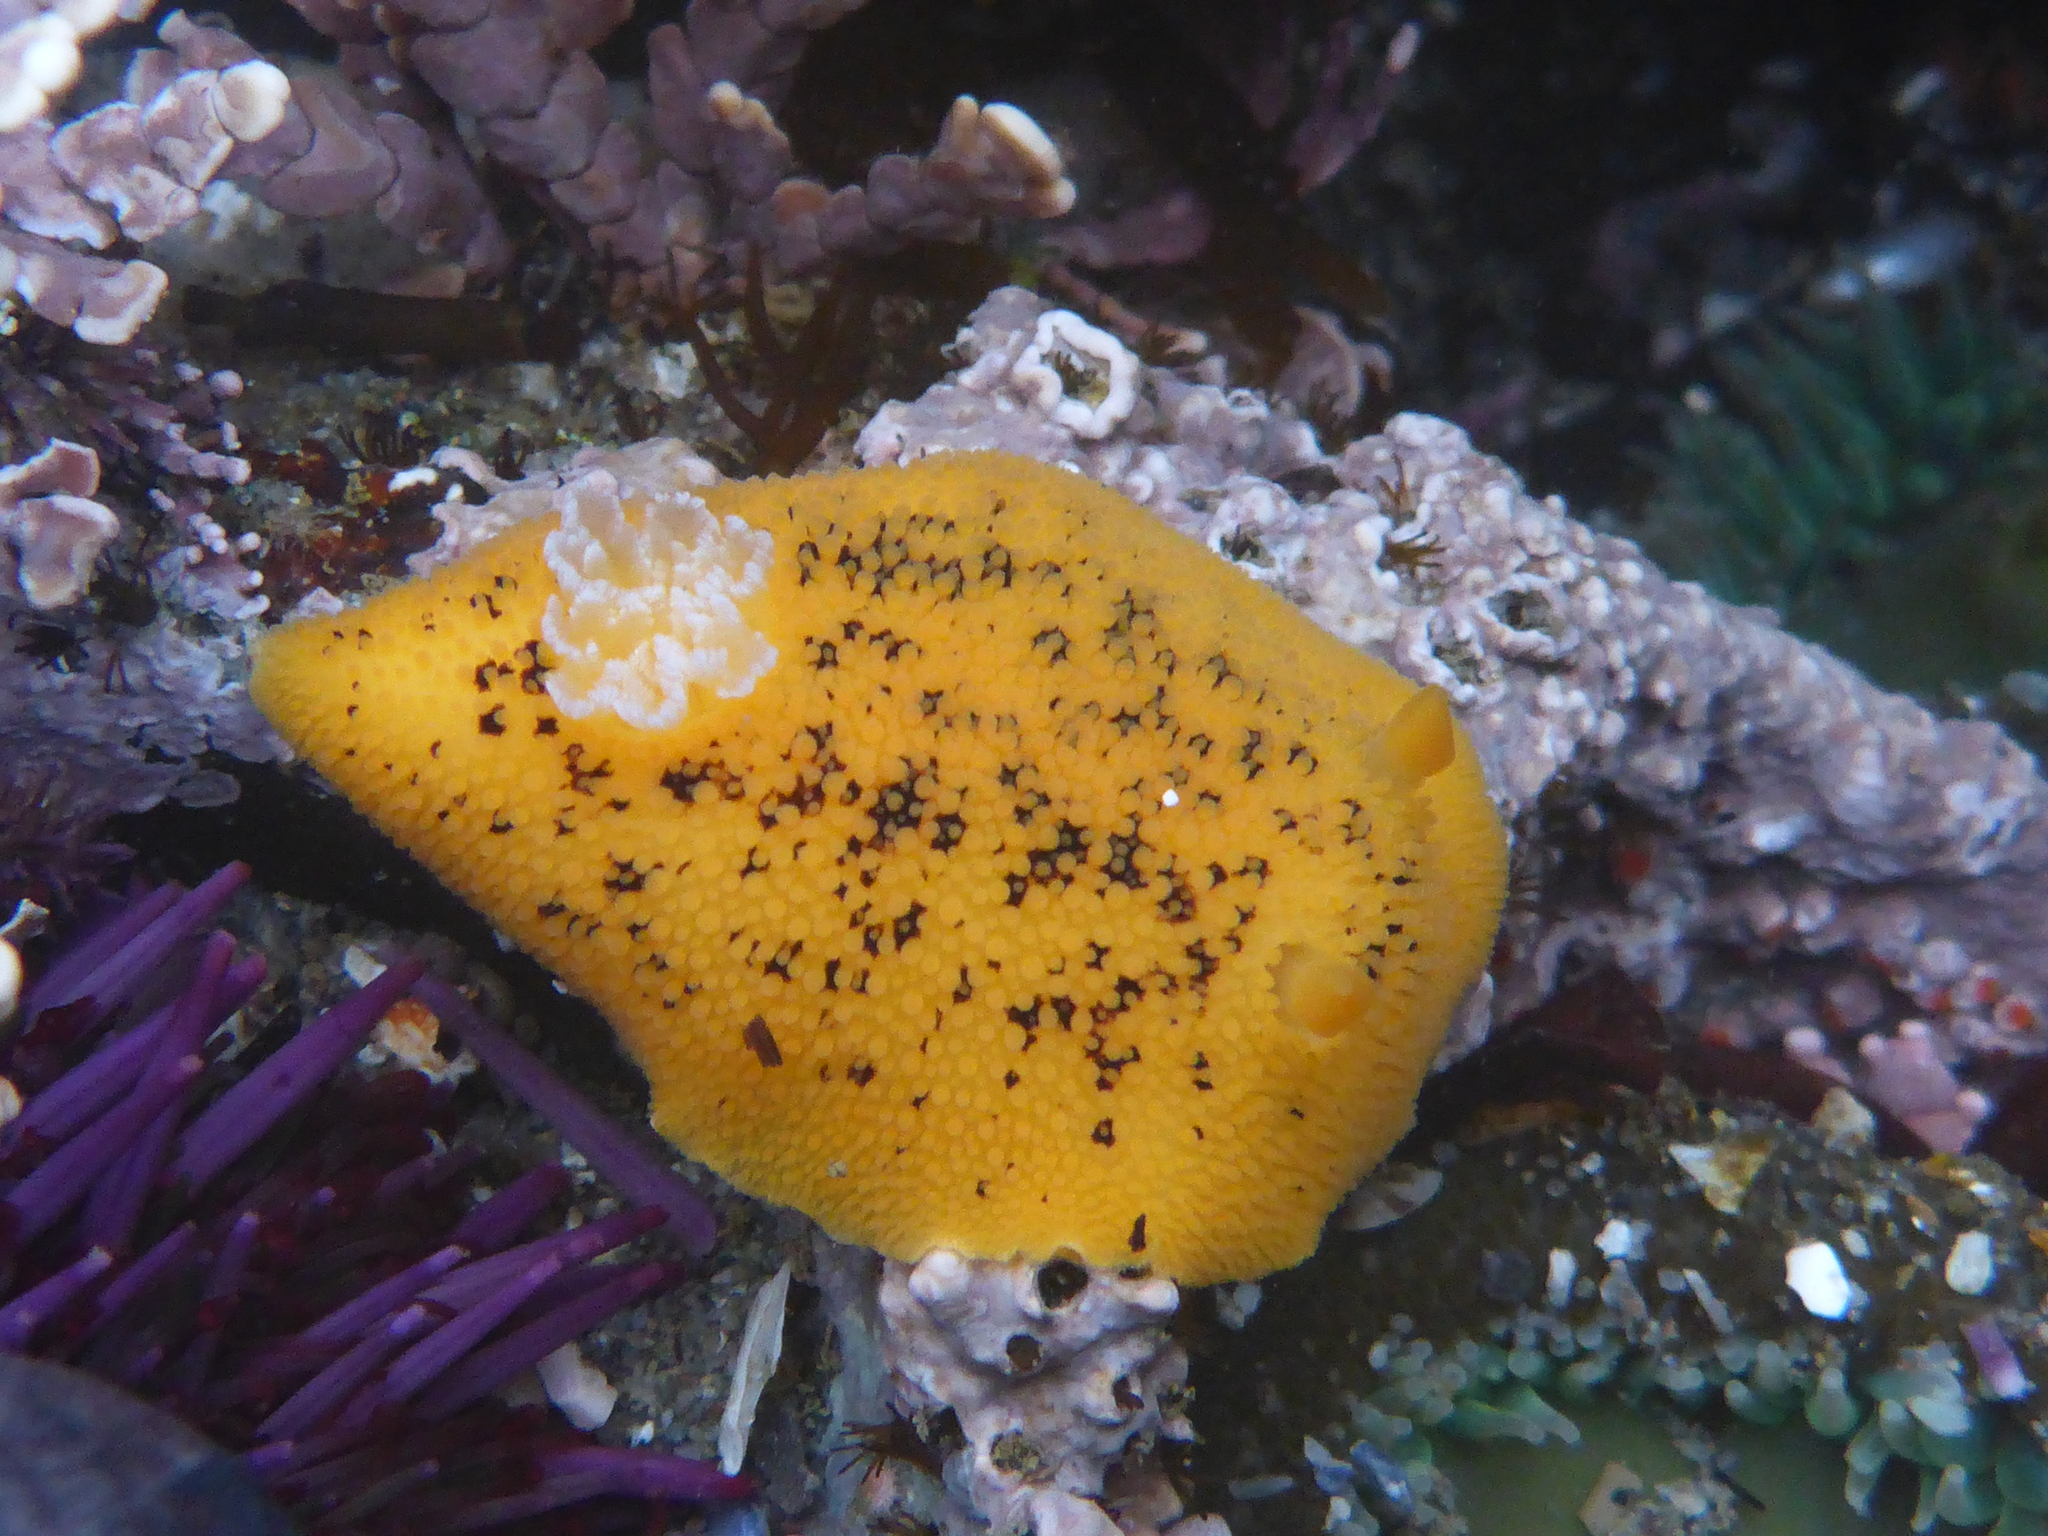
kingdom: Animalia
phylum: Mollusca
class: Gastropoda
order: Nudibranchia
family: Discodorididae
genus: Peltodoris
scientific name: Peltodoris nobilis
